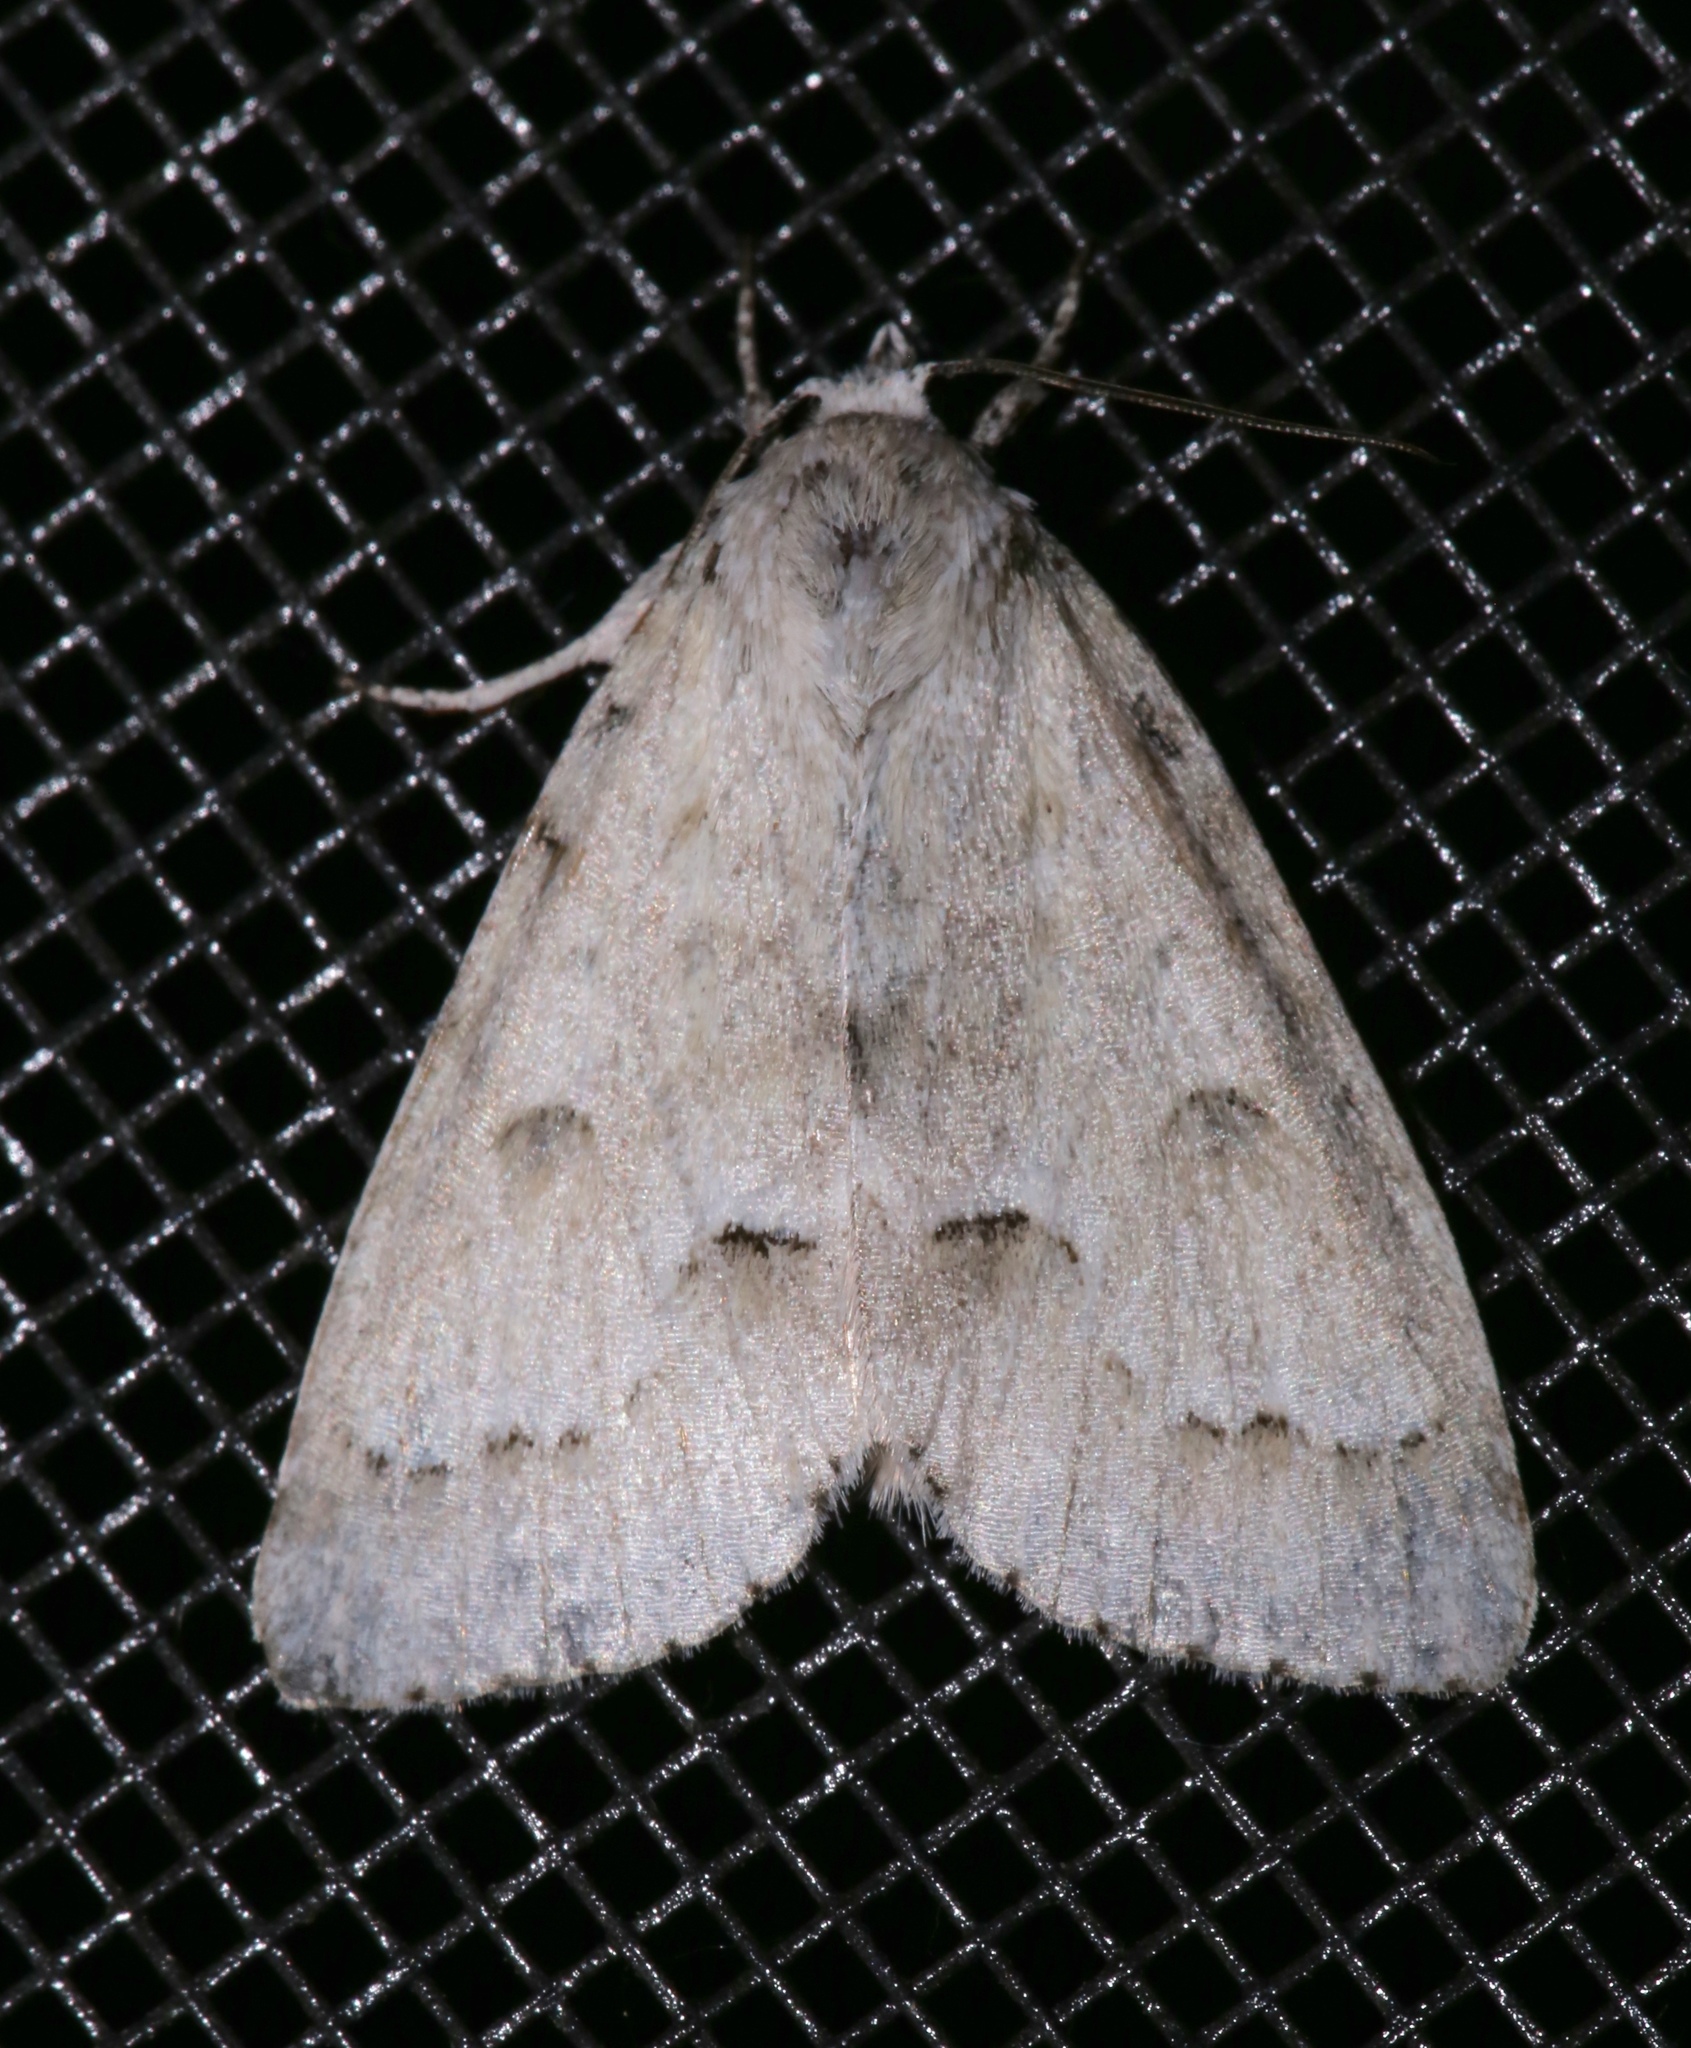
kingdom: Animalia
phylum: Arthropoda
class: Insecta
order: Lepidoptera
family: Noctuidae
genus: Acronicta
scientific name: Acronicta innotata
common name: Unmarked dagger
